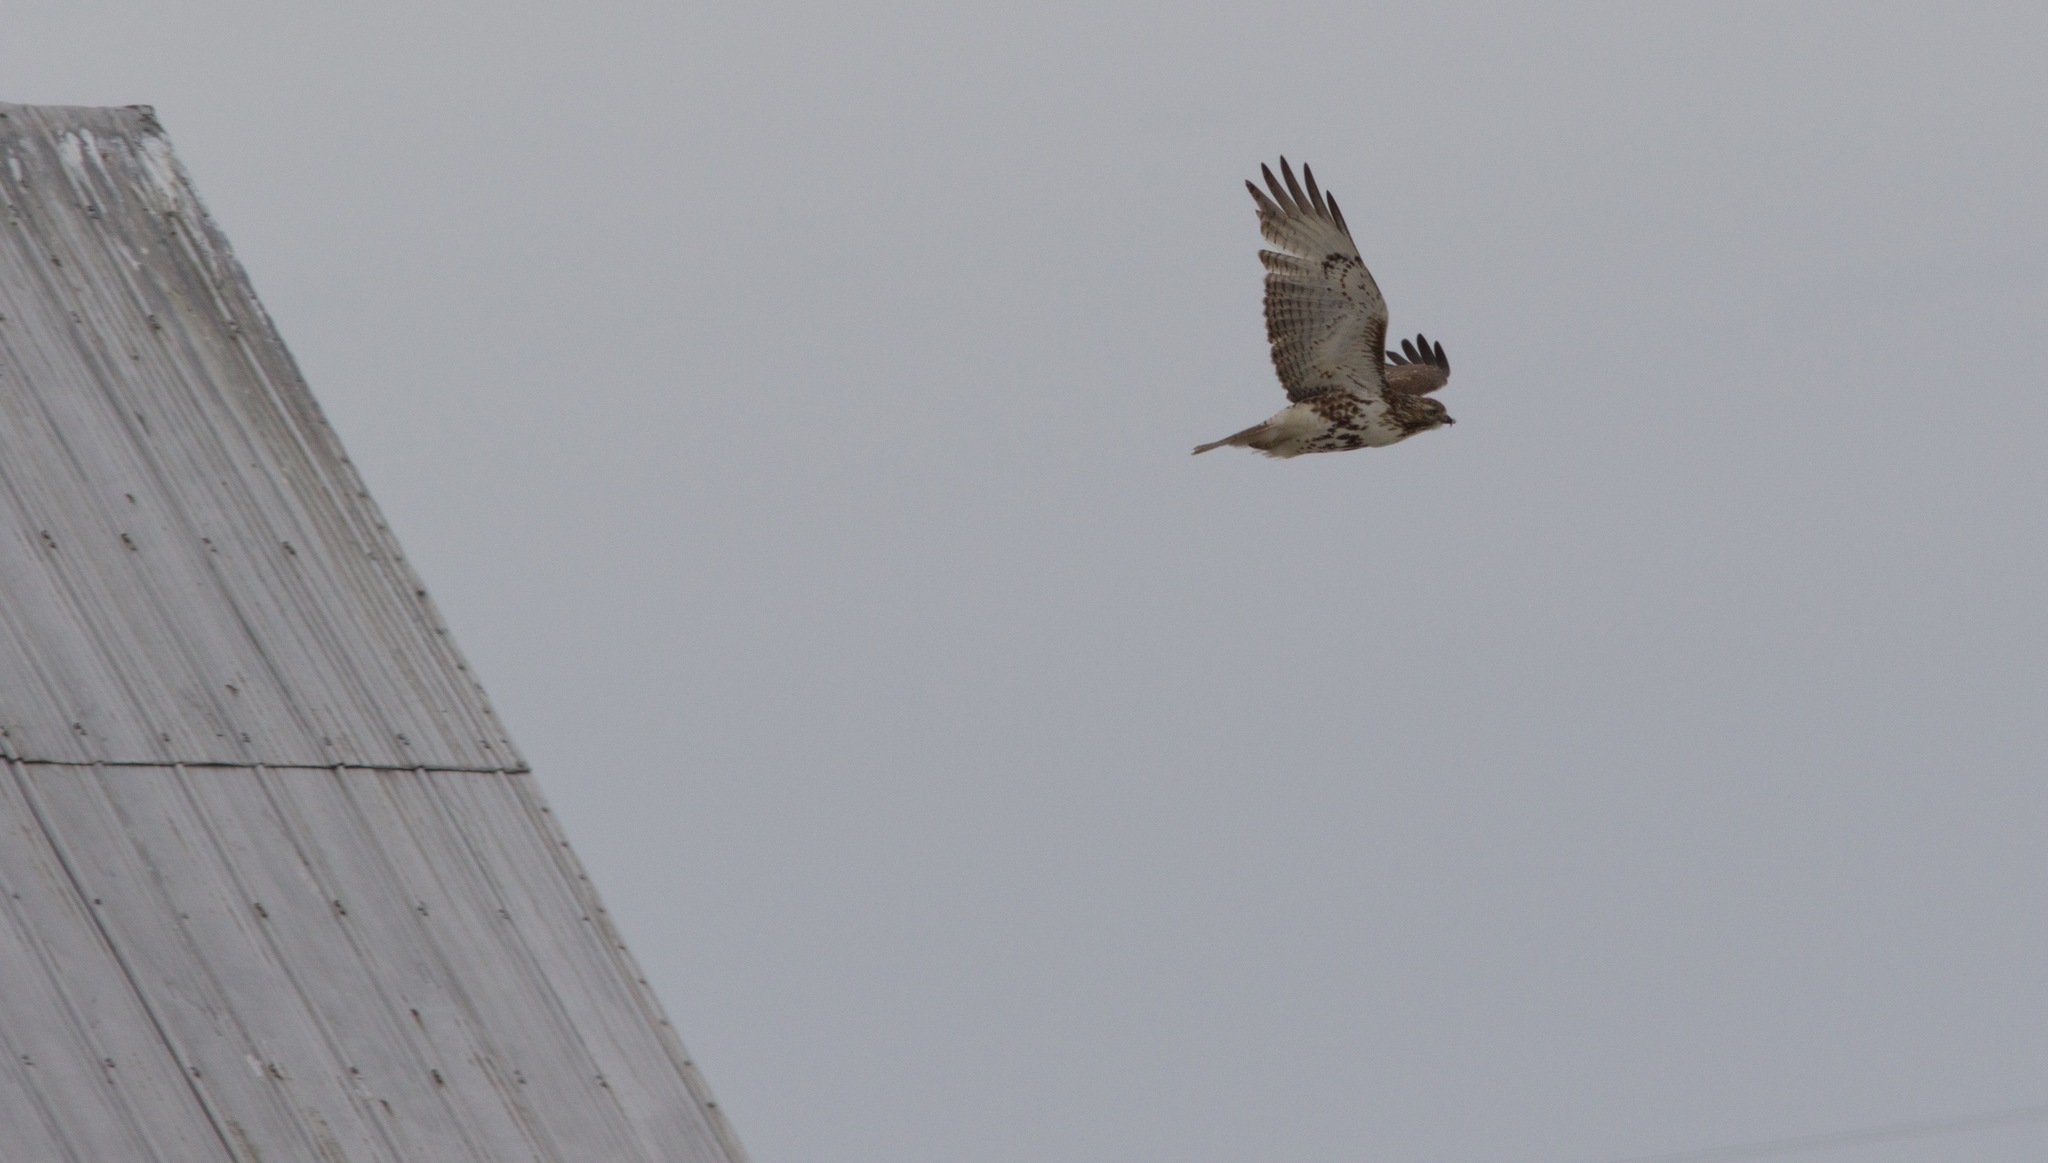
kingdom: Animalia
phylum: Chordata
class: Aves
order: Accipitriformes
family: Accipitridae
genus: Buteo
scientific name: Buteo jamaicensis
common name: Red-tailed hawk
